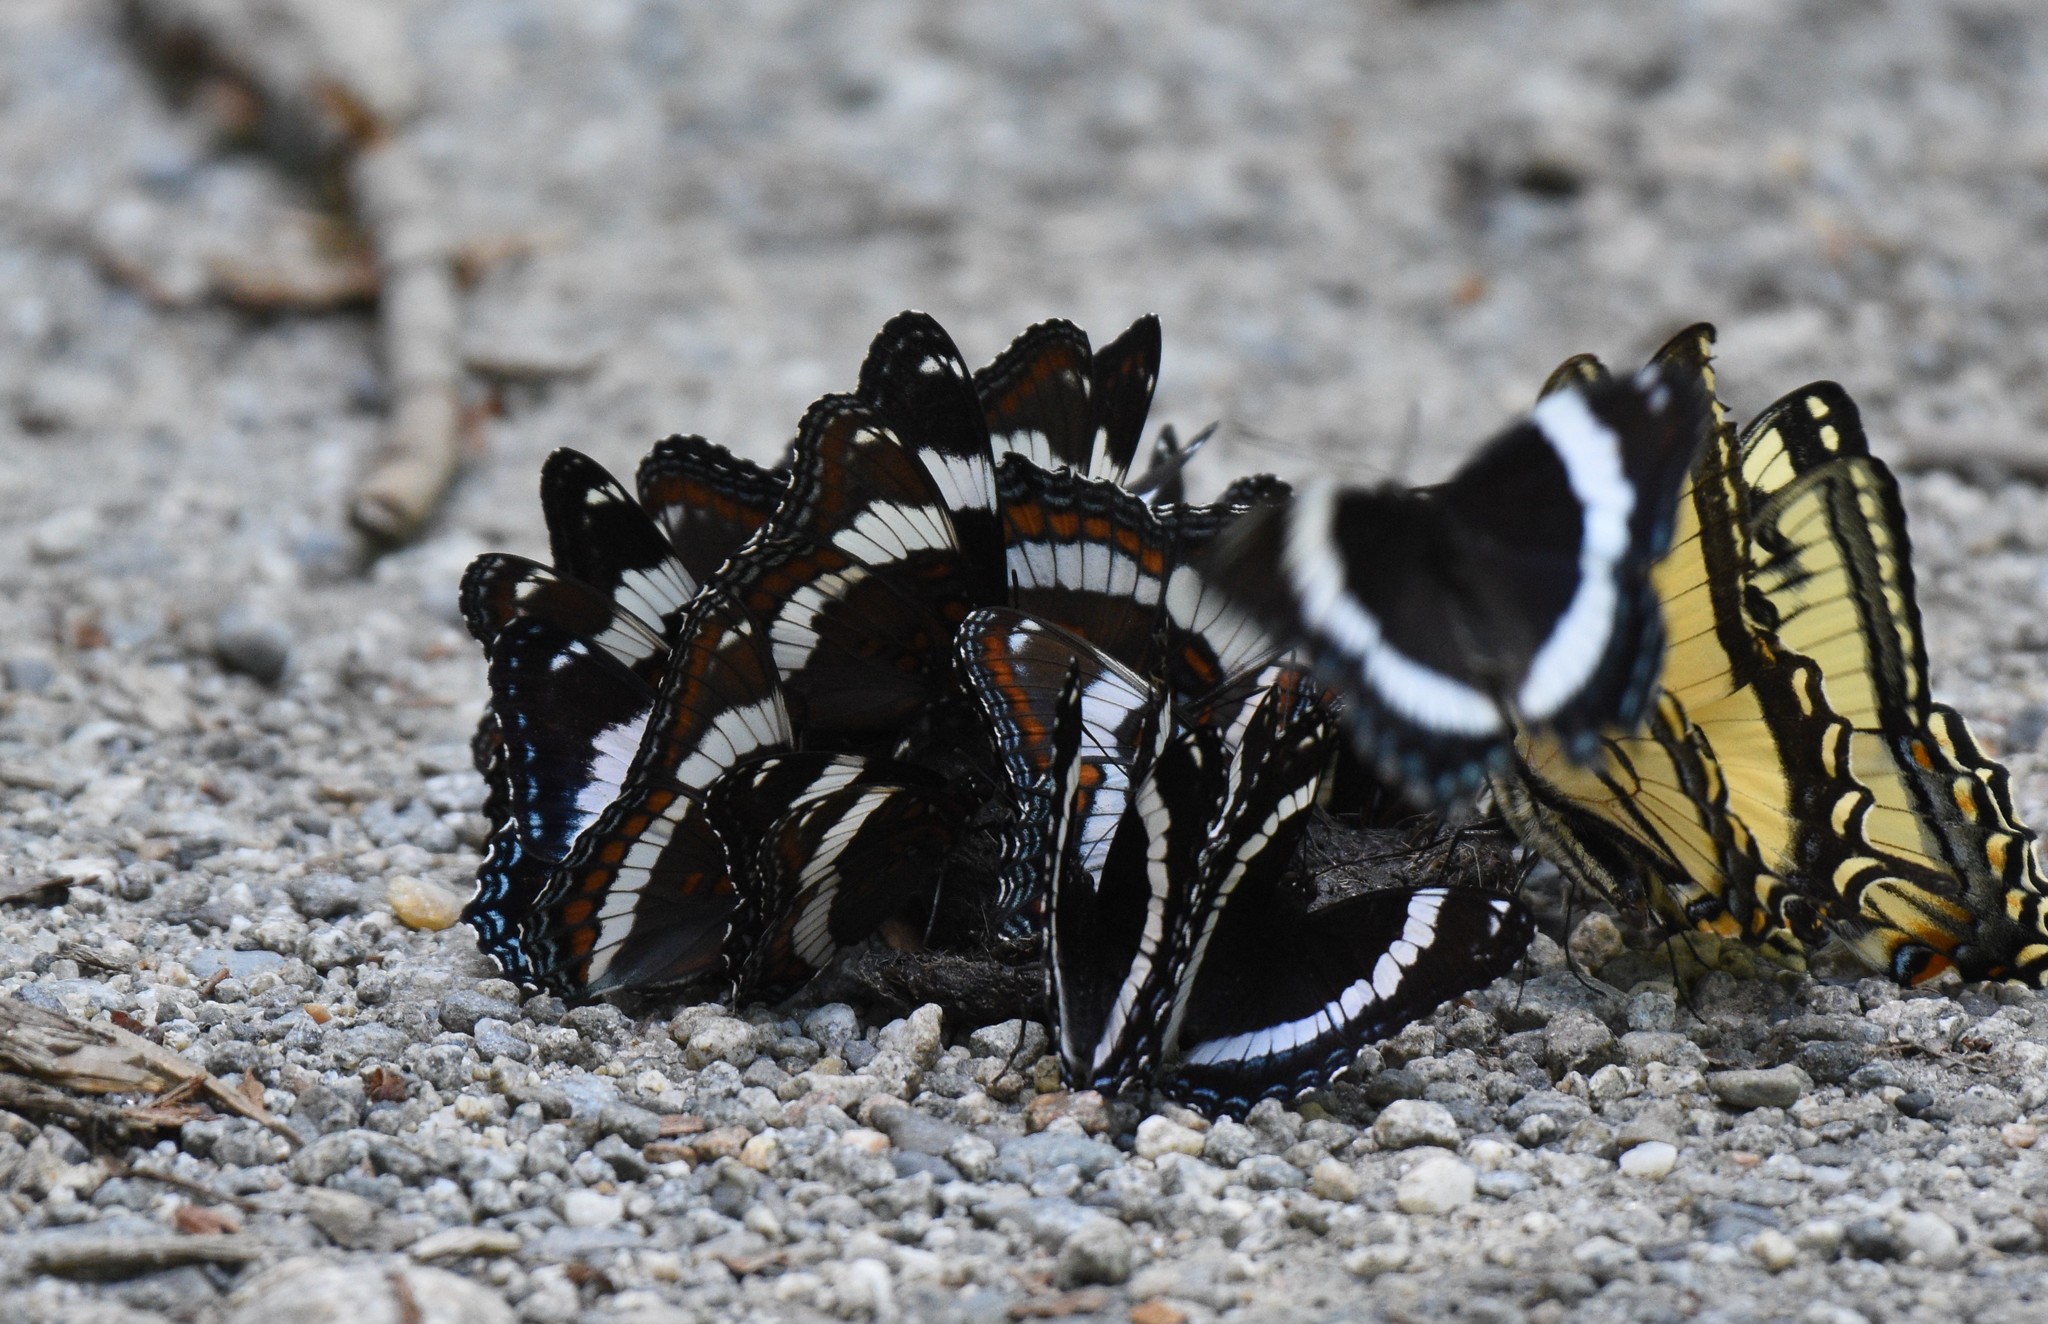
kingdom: Animalia
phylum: Arthropoda
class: Insecta
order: Lepidoptera
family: Nymphalidae
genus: Limenitis
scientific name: Limenitis arthemis
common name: Red-spotted admiral
